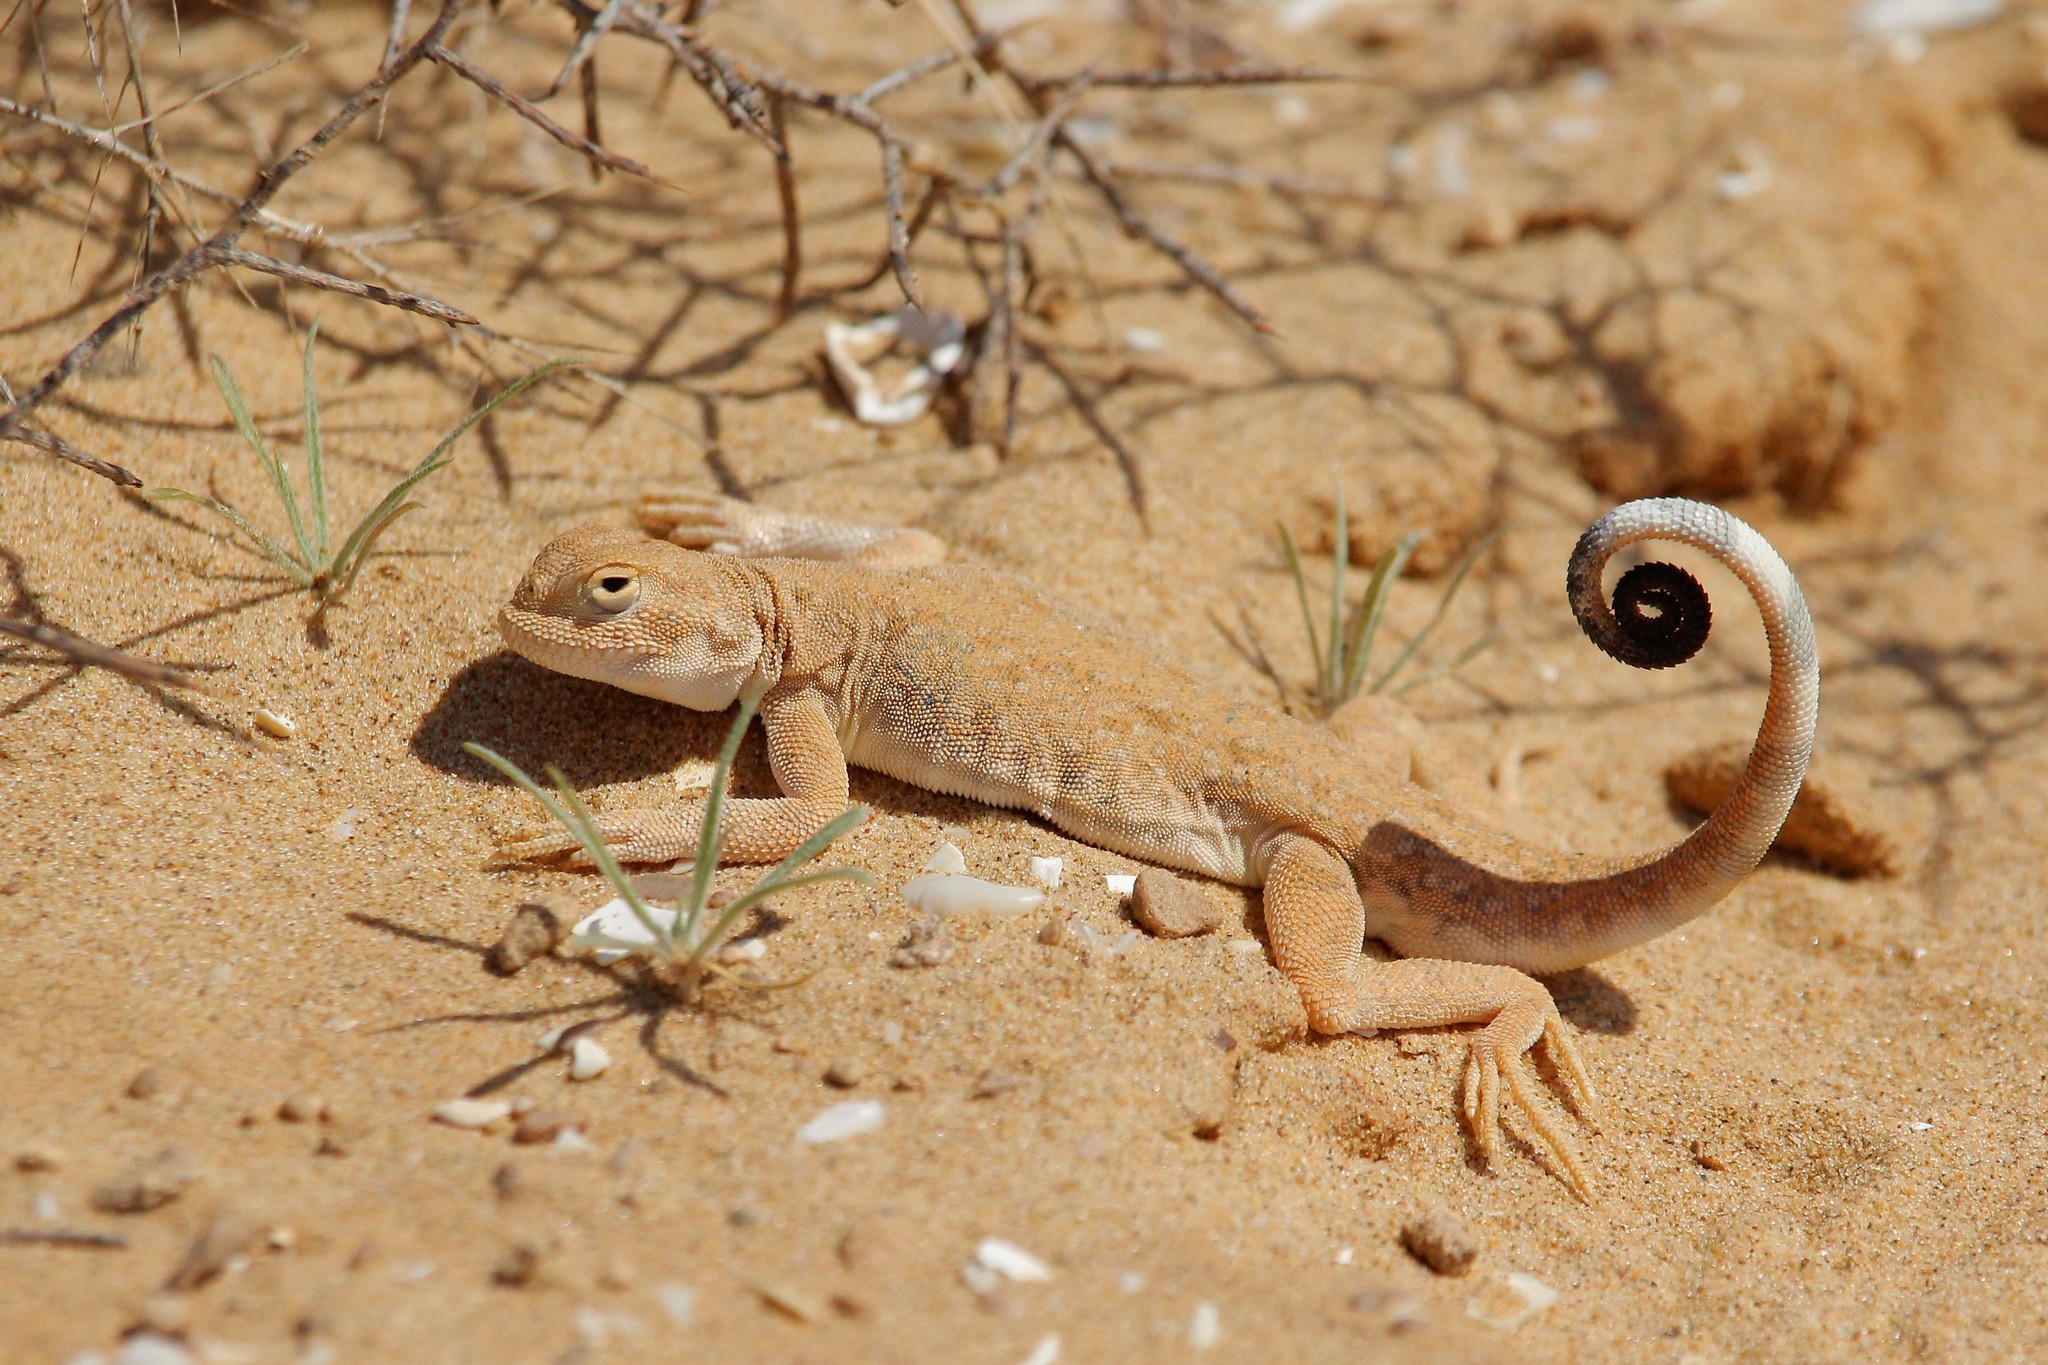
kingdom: Animalia
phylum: Chordata
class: Squamata
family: Agamidae
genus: Phrynocephalus
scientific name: Phrynocephalus guttatus
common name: Spotted toadhead agama
